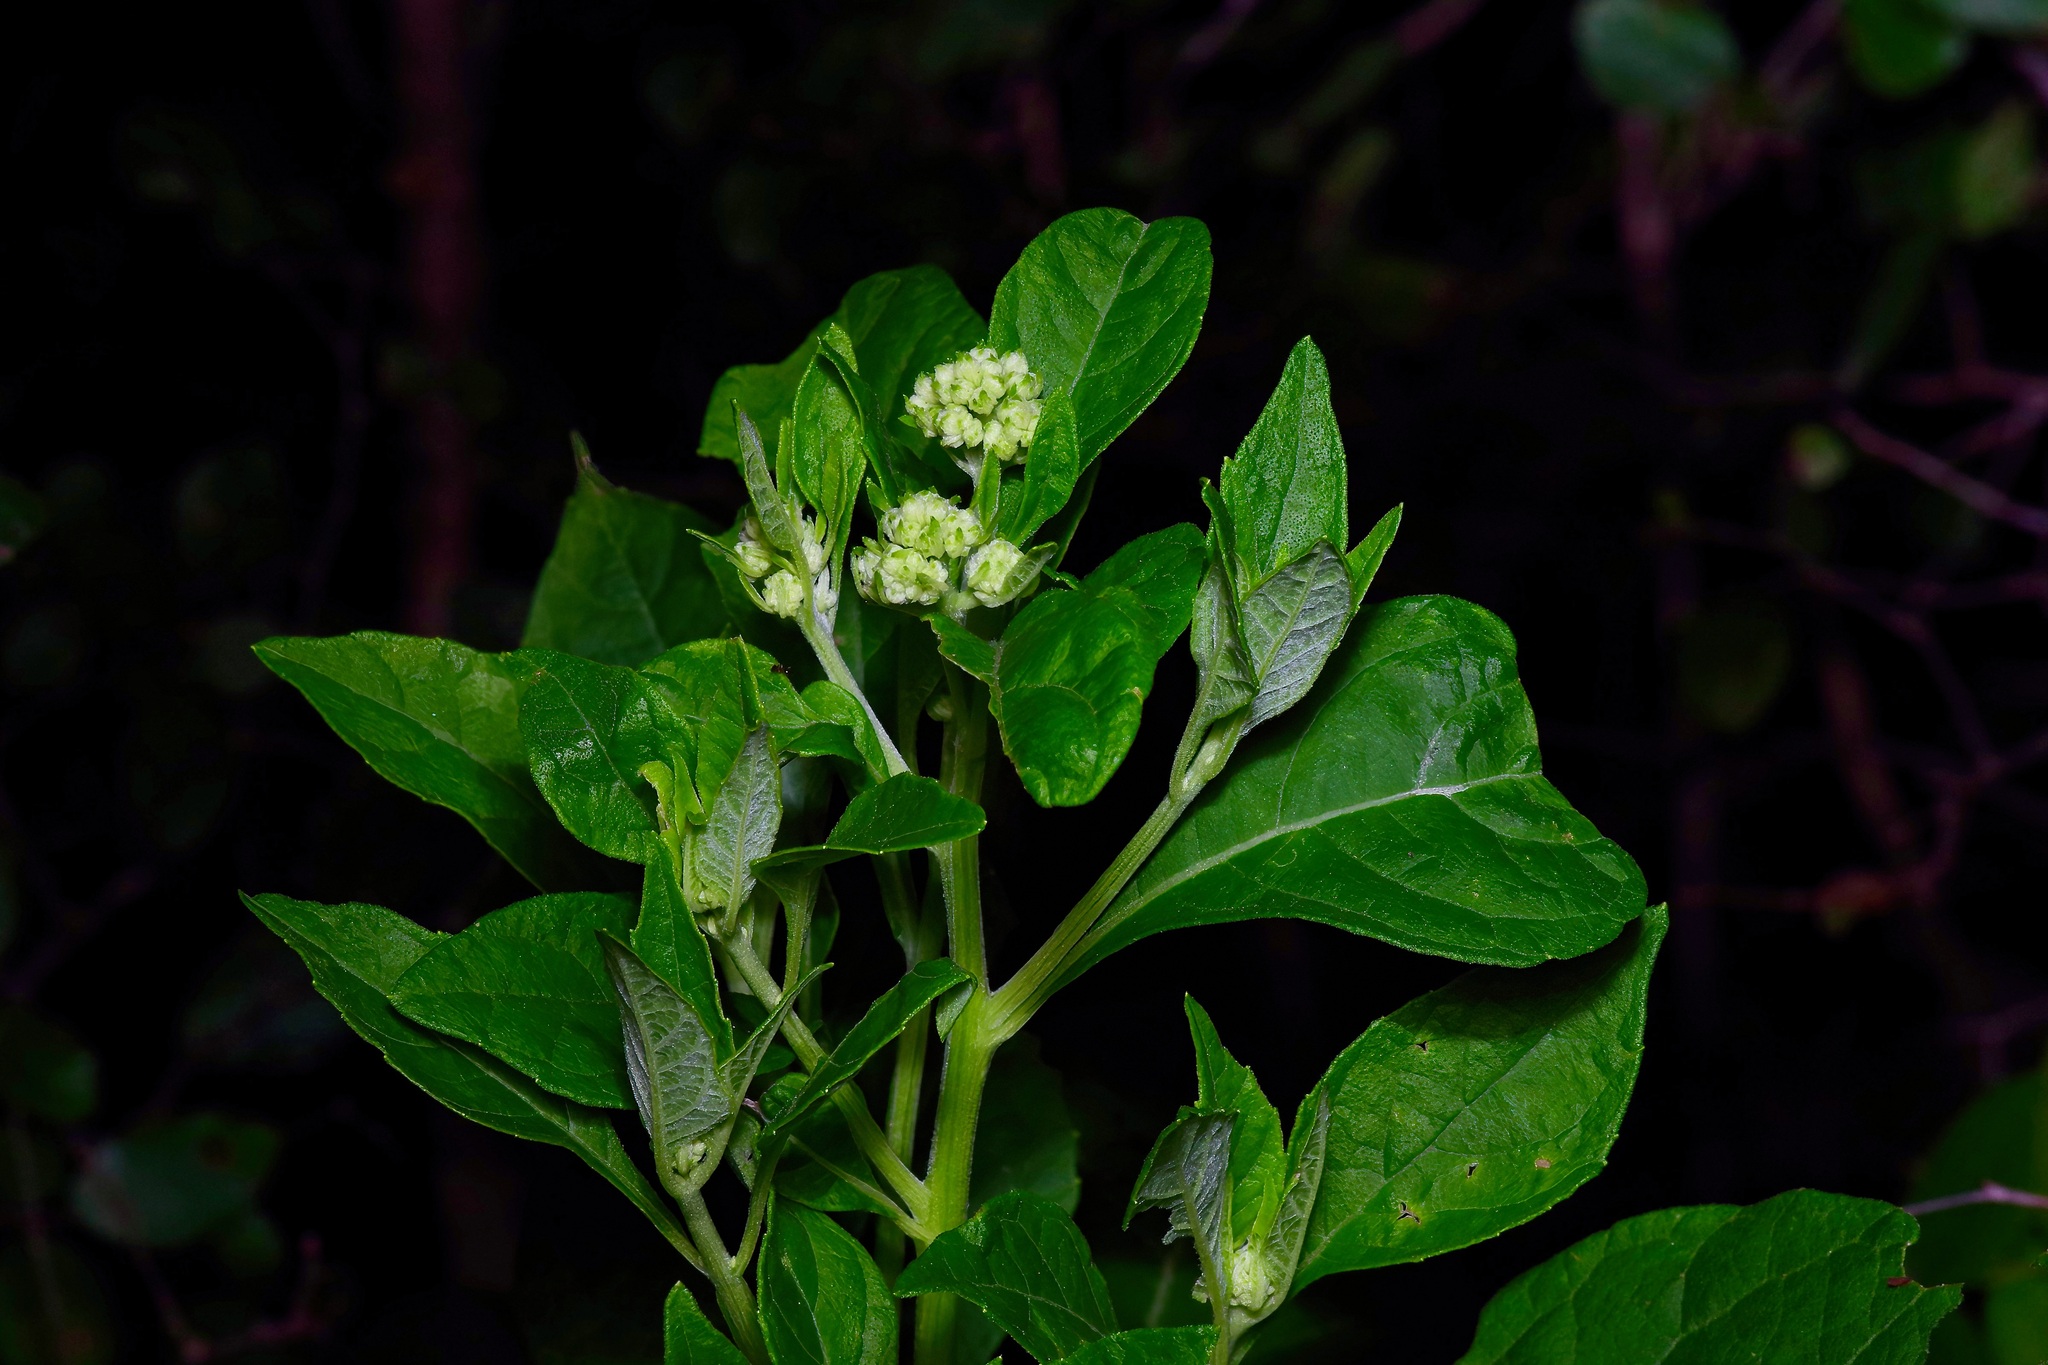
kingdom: Plantae
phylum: Tracheophyta
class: Magnoliopsida
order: Asterales
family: Asteraceae
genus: Verbesina
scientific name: Verbesina virginica
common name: Frostweed
